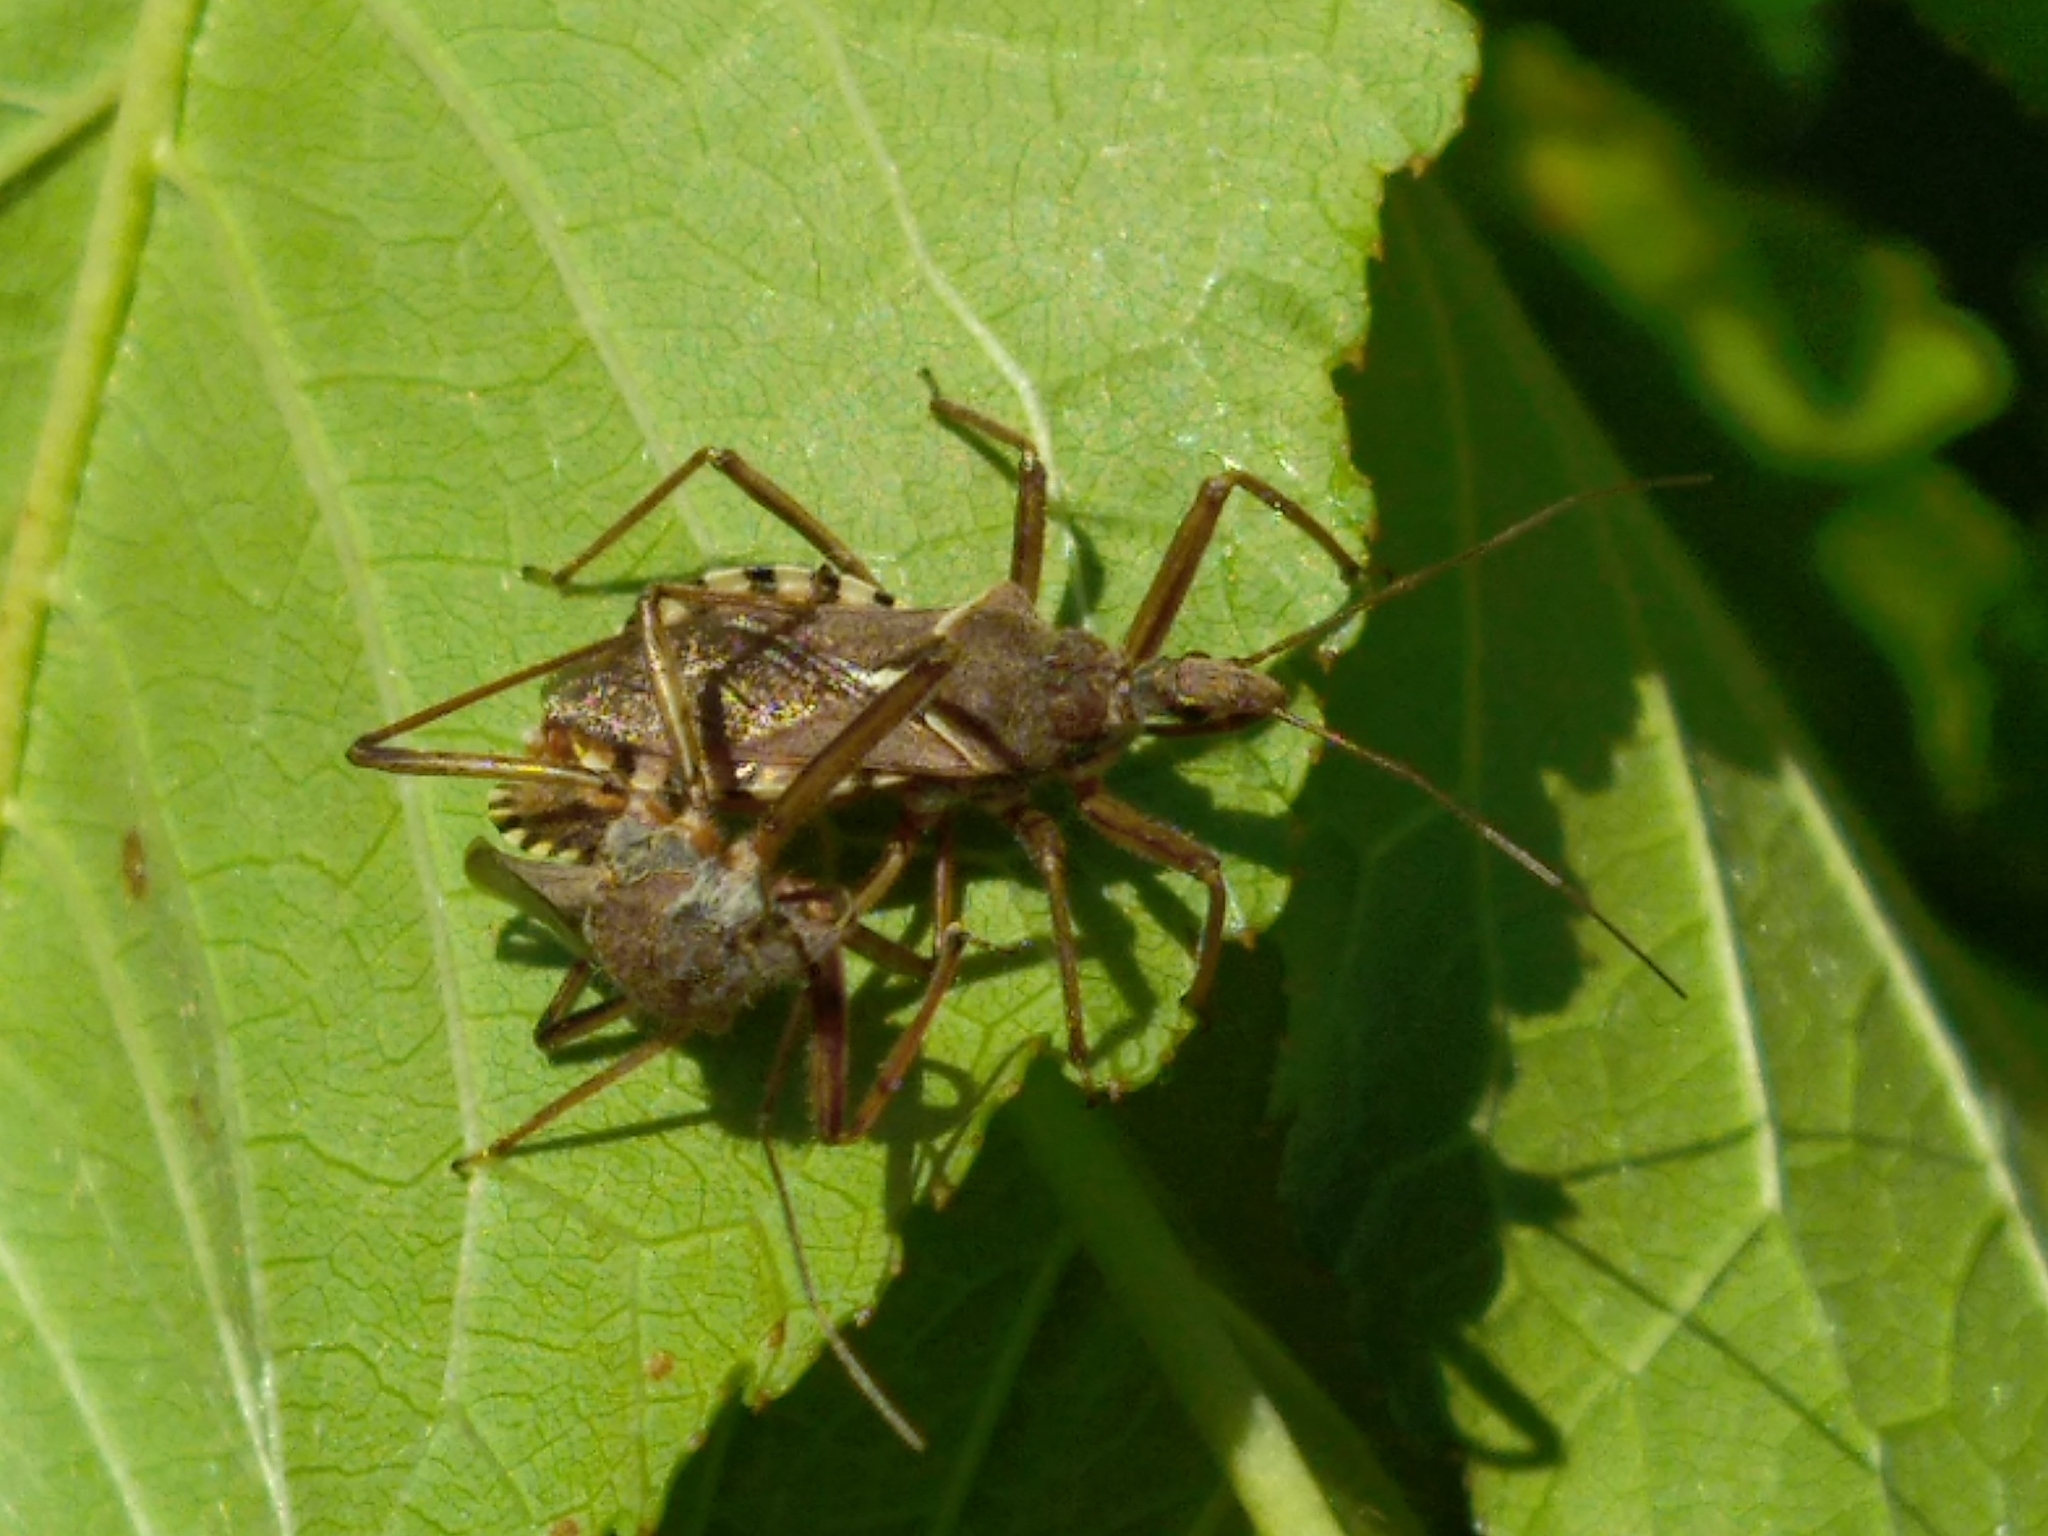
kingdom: Animalia
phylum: Arthropoda
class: Insecta
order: Hemiptera
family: Reduviidae
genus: Rhynocoris
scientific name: Rhynocoris erythropus
